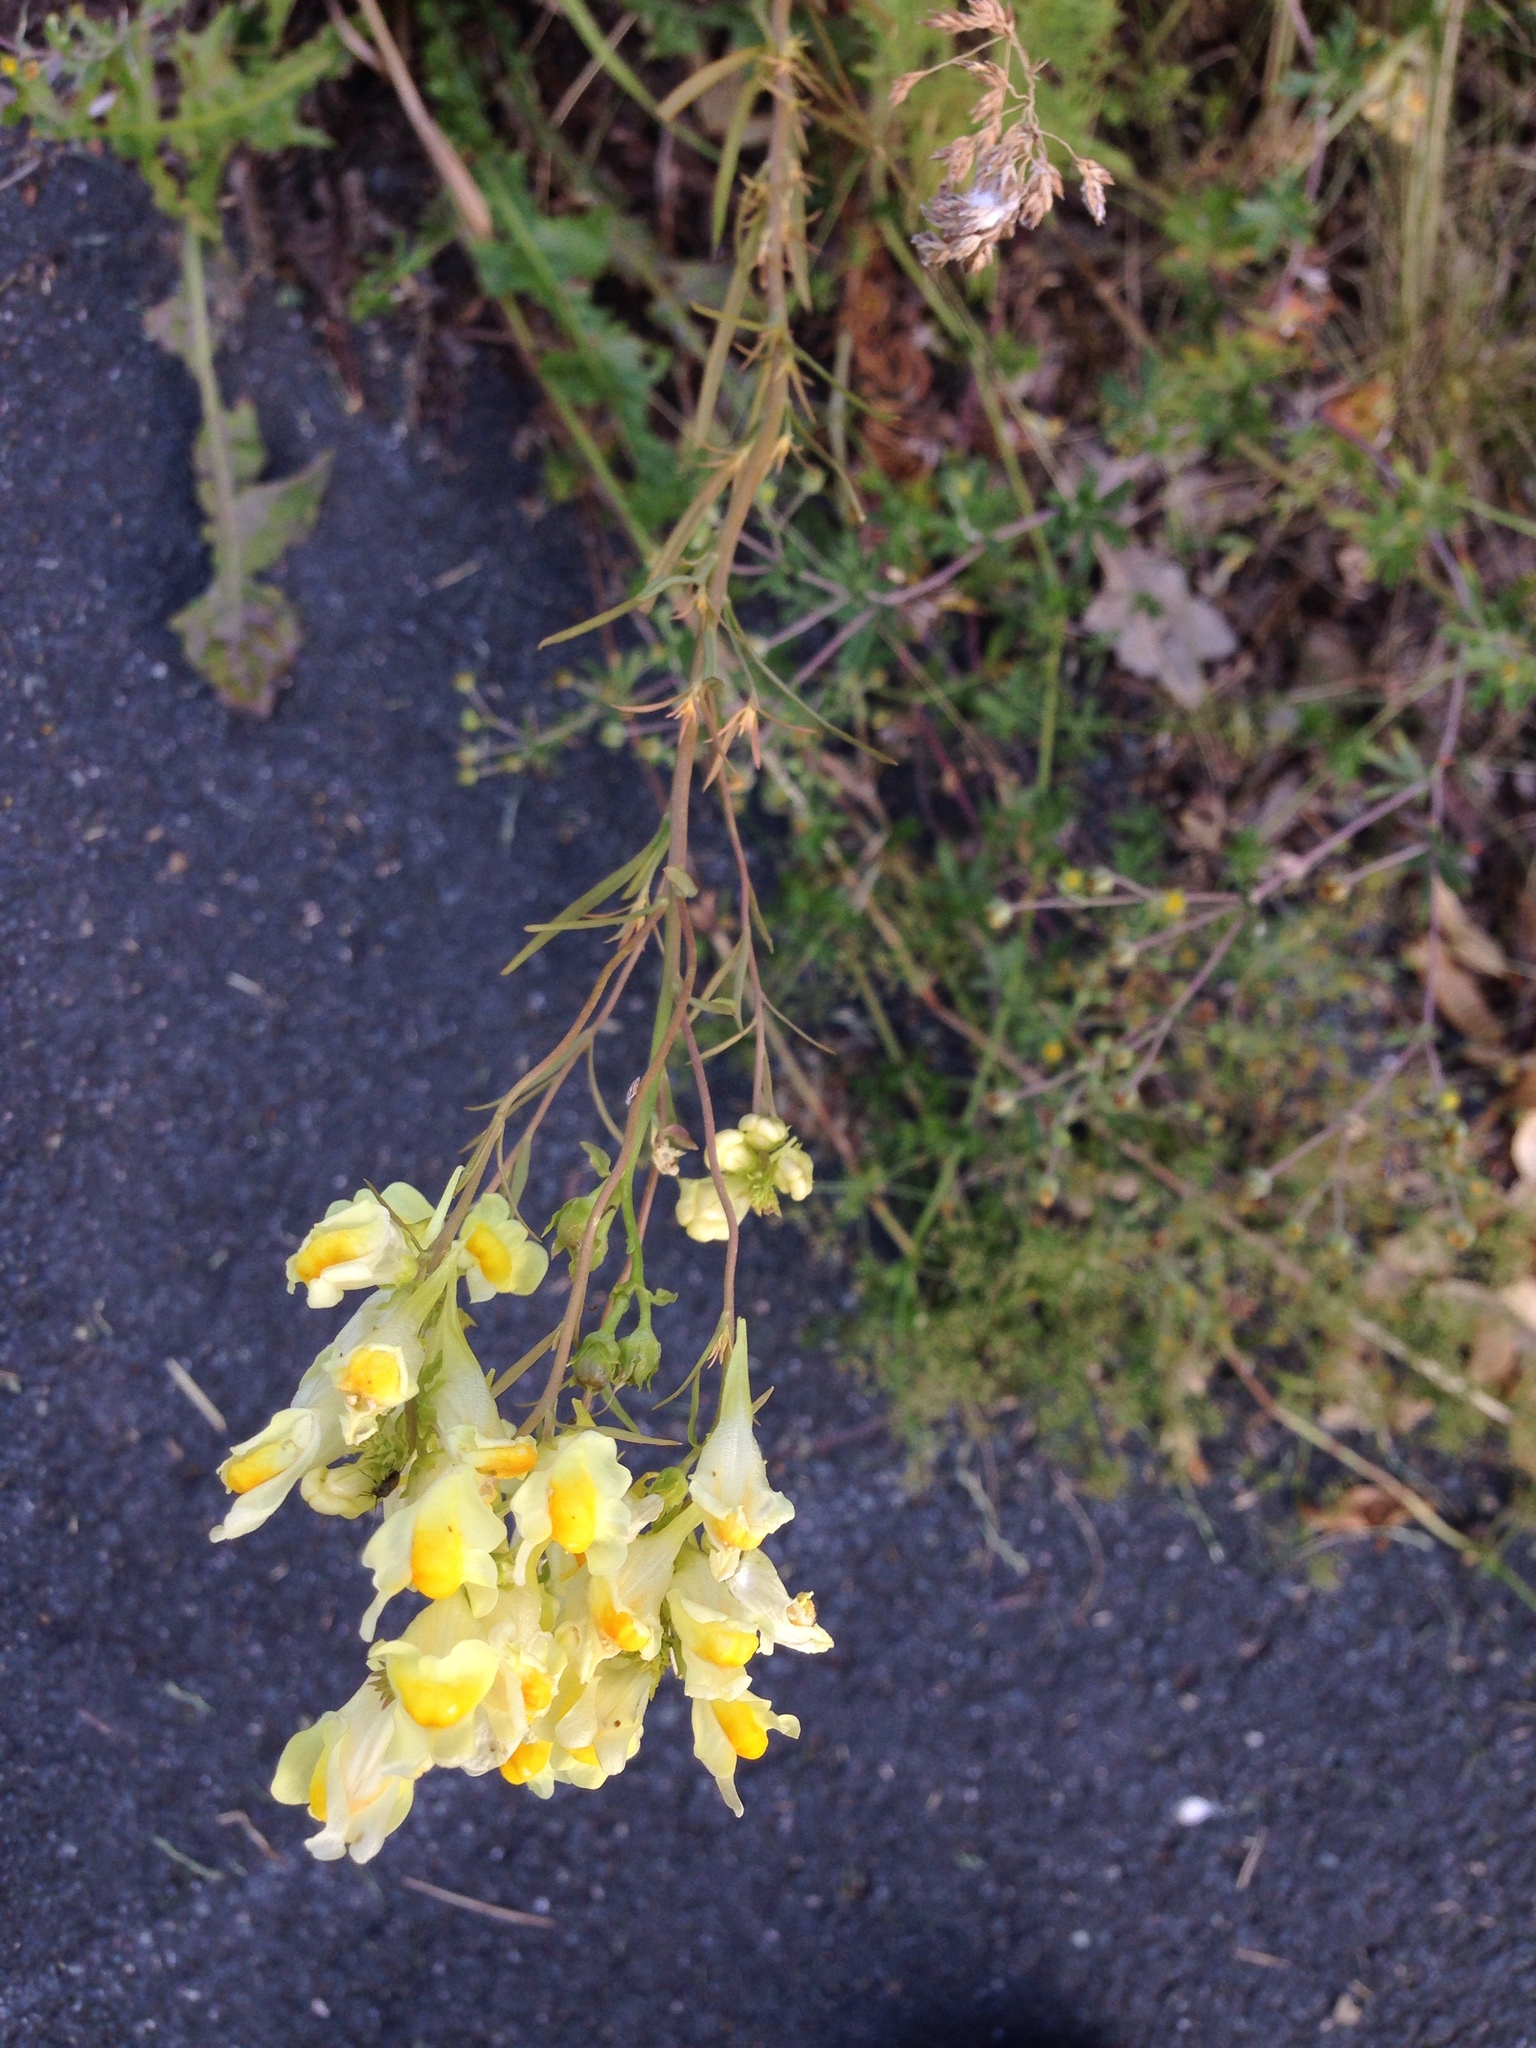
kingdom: Plantae
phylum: Tracheophyta
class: Magnoliopsida
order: Lamiales
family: Plantaginaceae
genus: Linaria
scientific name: Linaria vulgaris
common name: Butter and eggs
